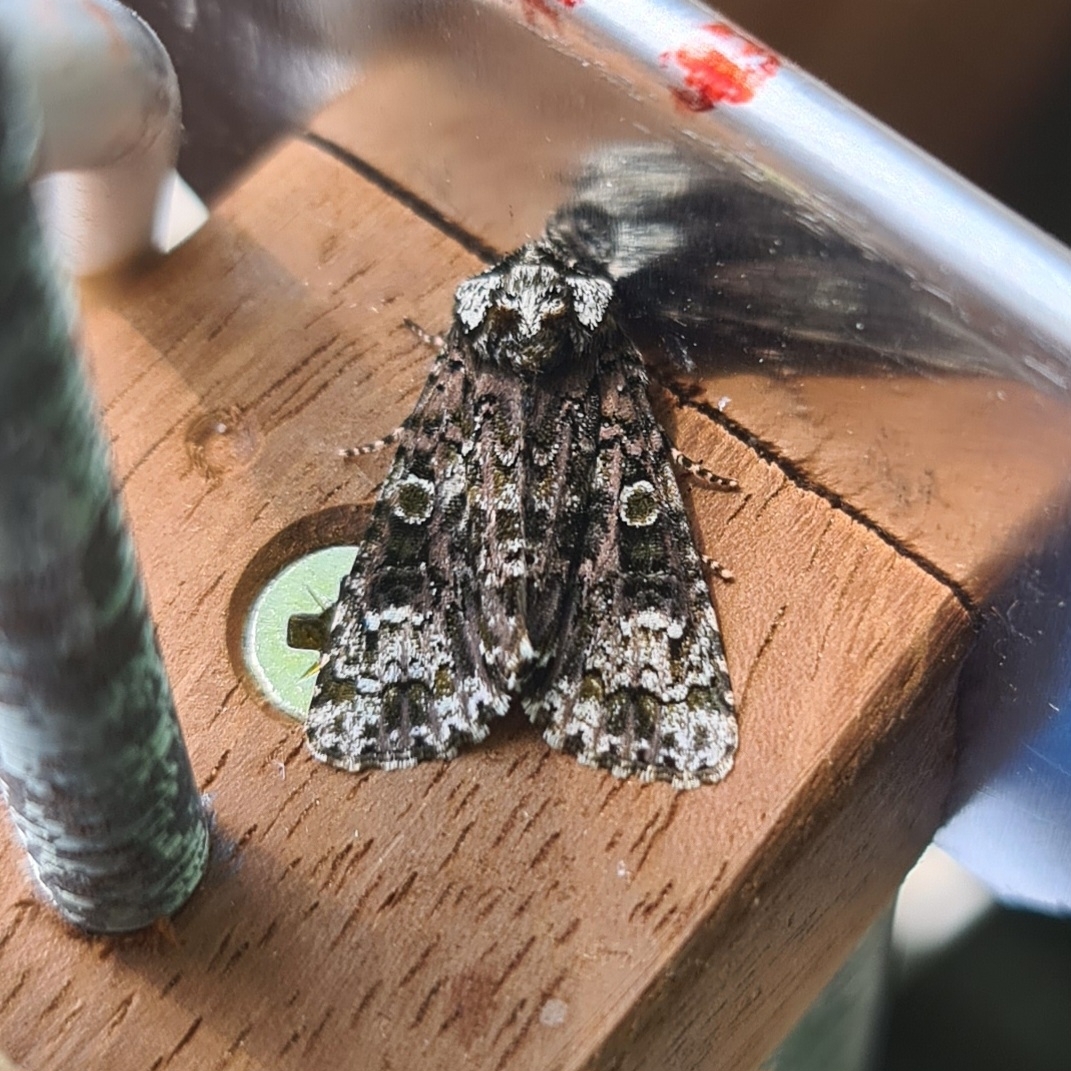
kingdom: Animalia
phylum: Arthropoda
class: Insecta
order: Lepidoptera
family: Noctuidae
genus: Craniophora
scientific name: Craniophora ligustri
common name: Coronet
